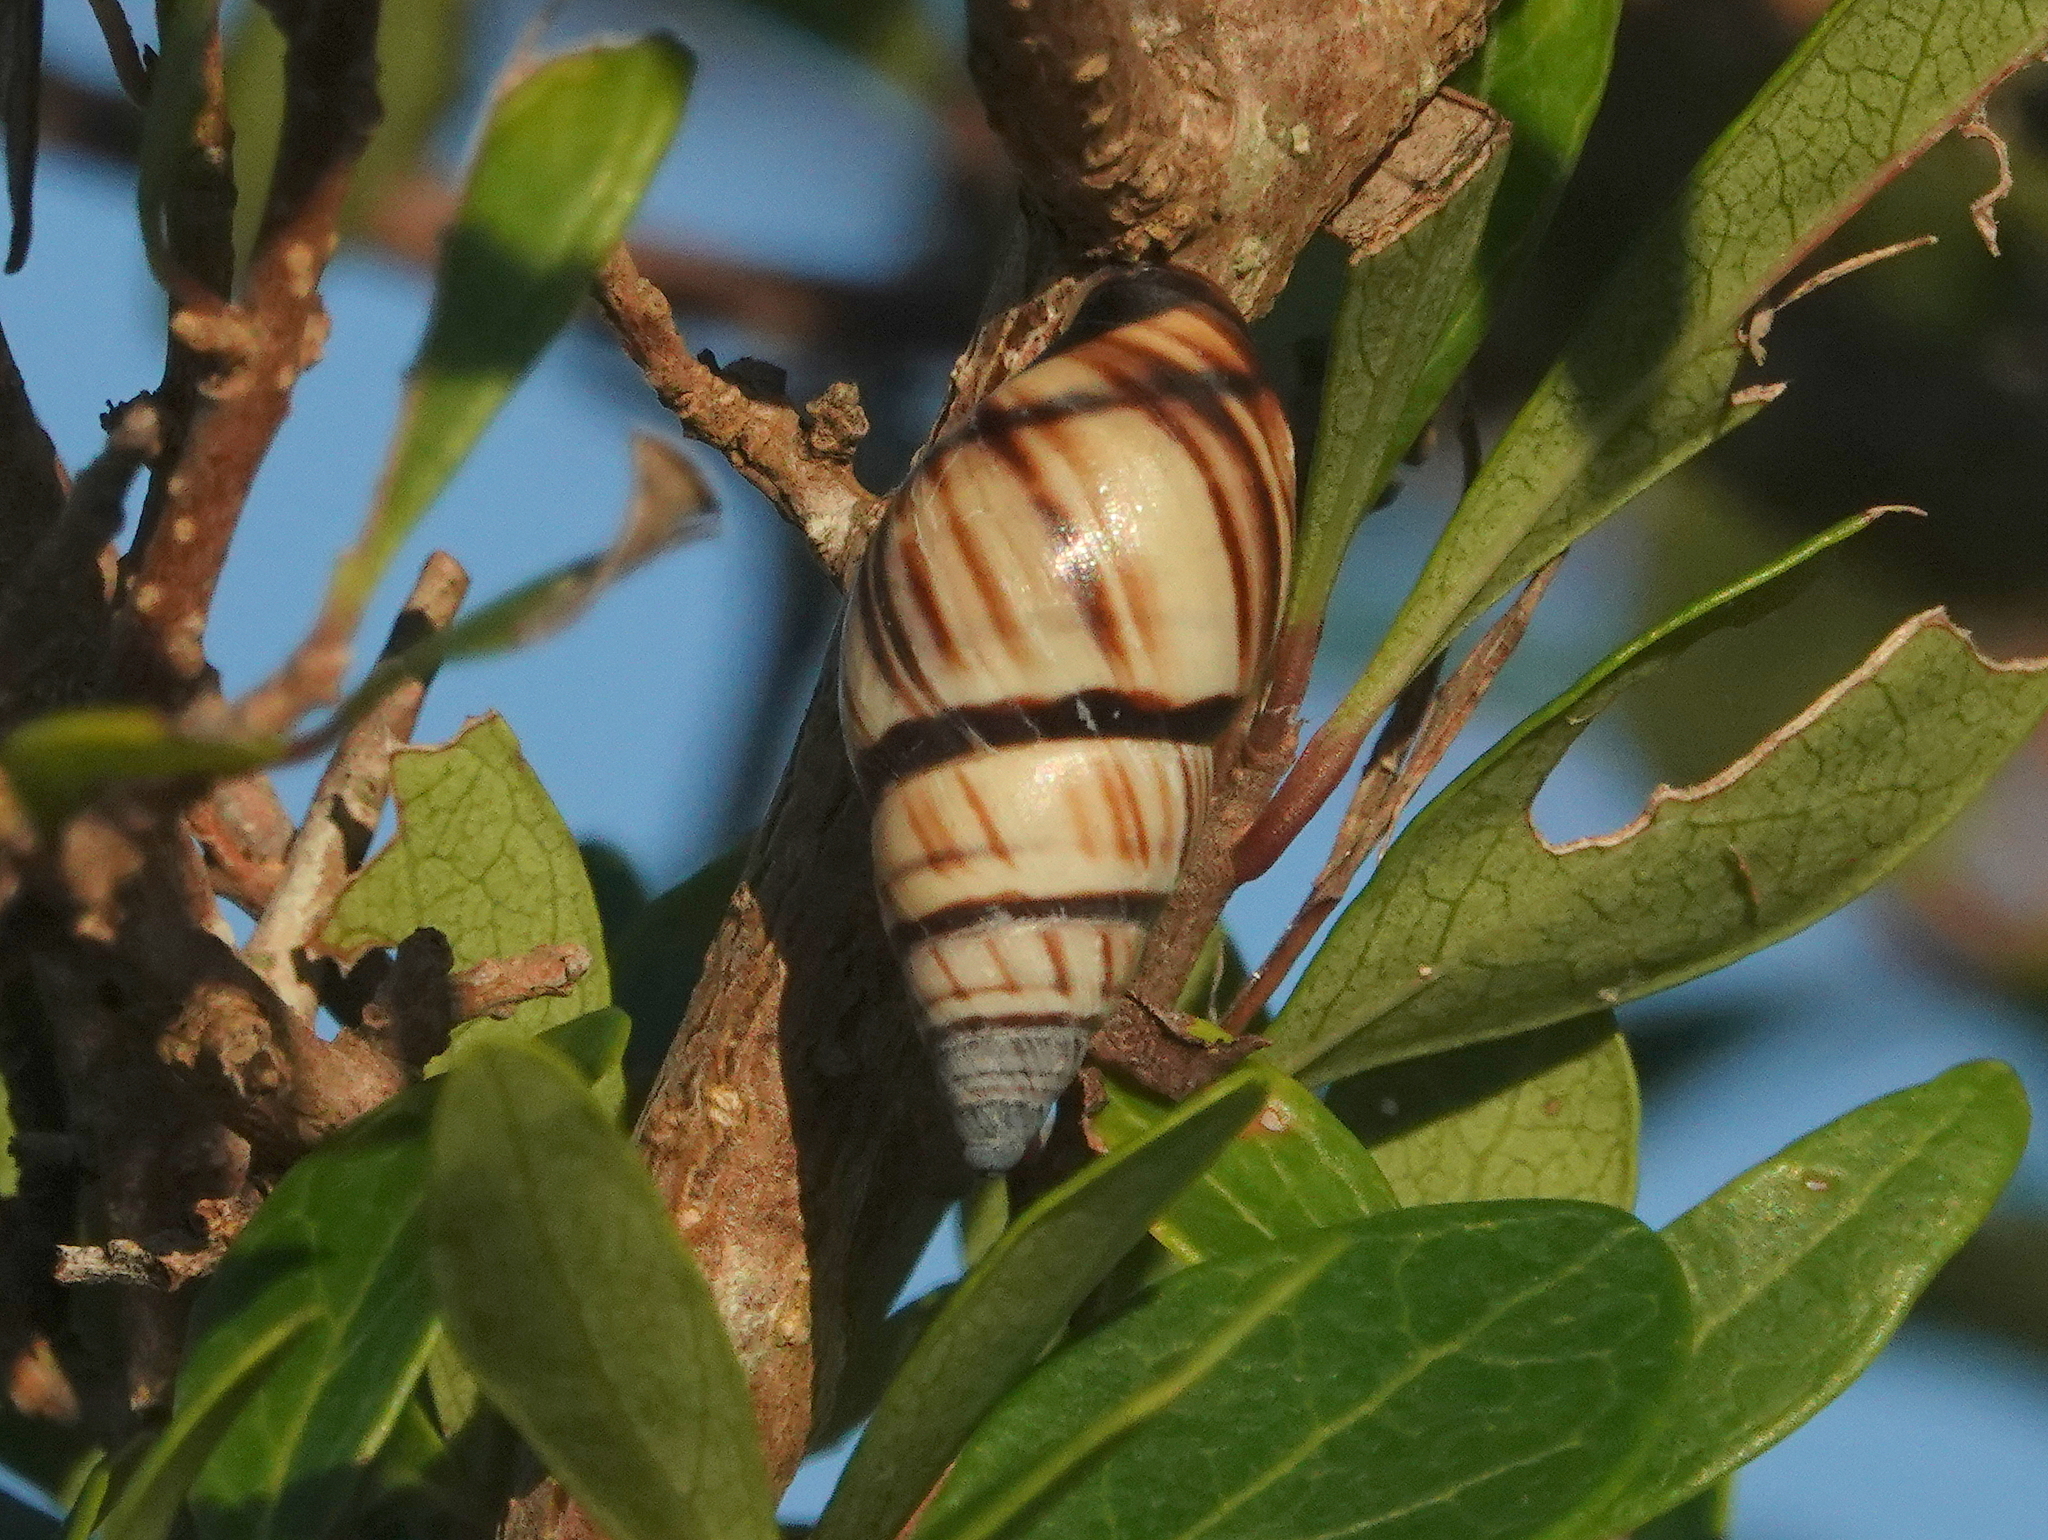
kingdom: Animalia
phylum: Mollusca
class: Gastropoda
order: Stylommatophora
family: Bulimulidae
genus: Drymaeus
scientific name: Drymaeus
